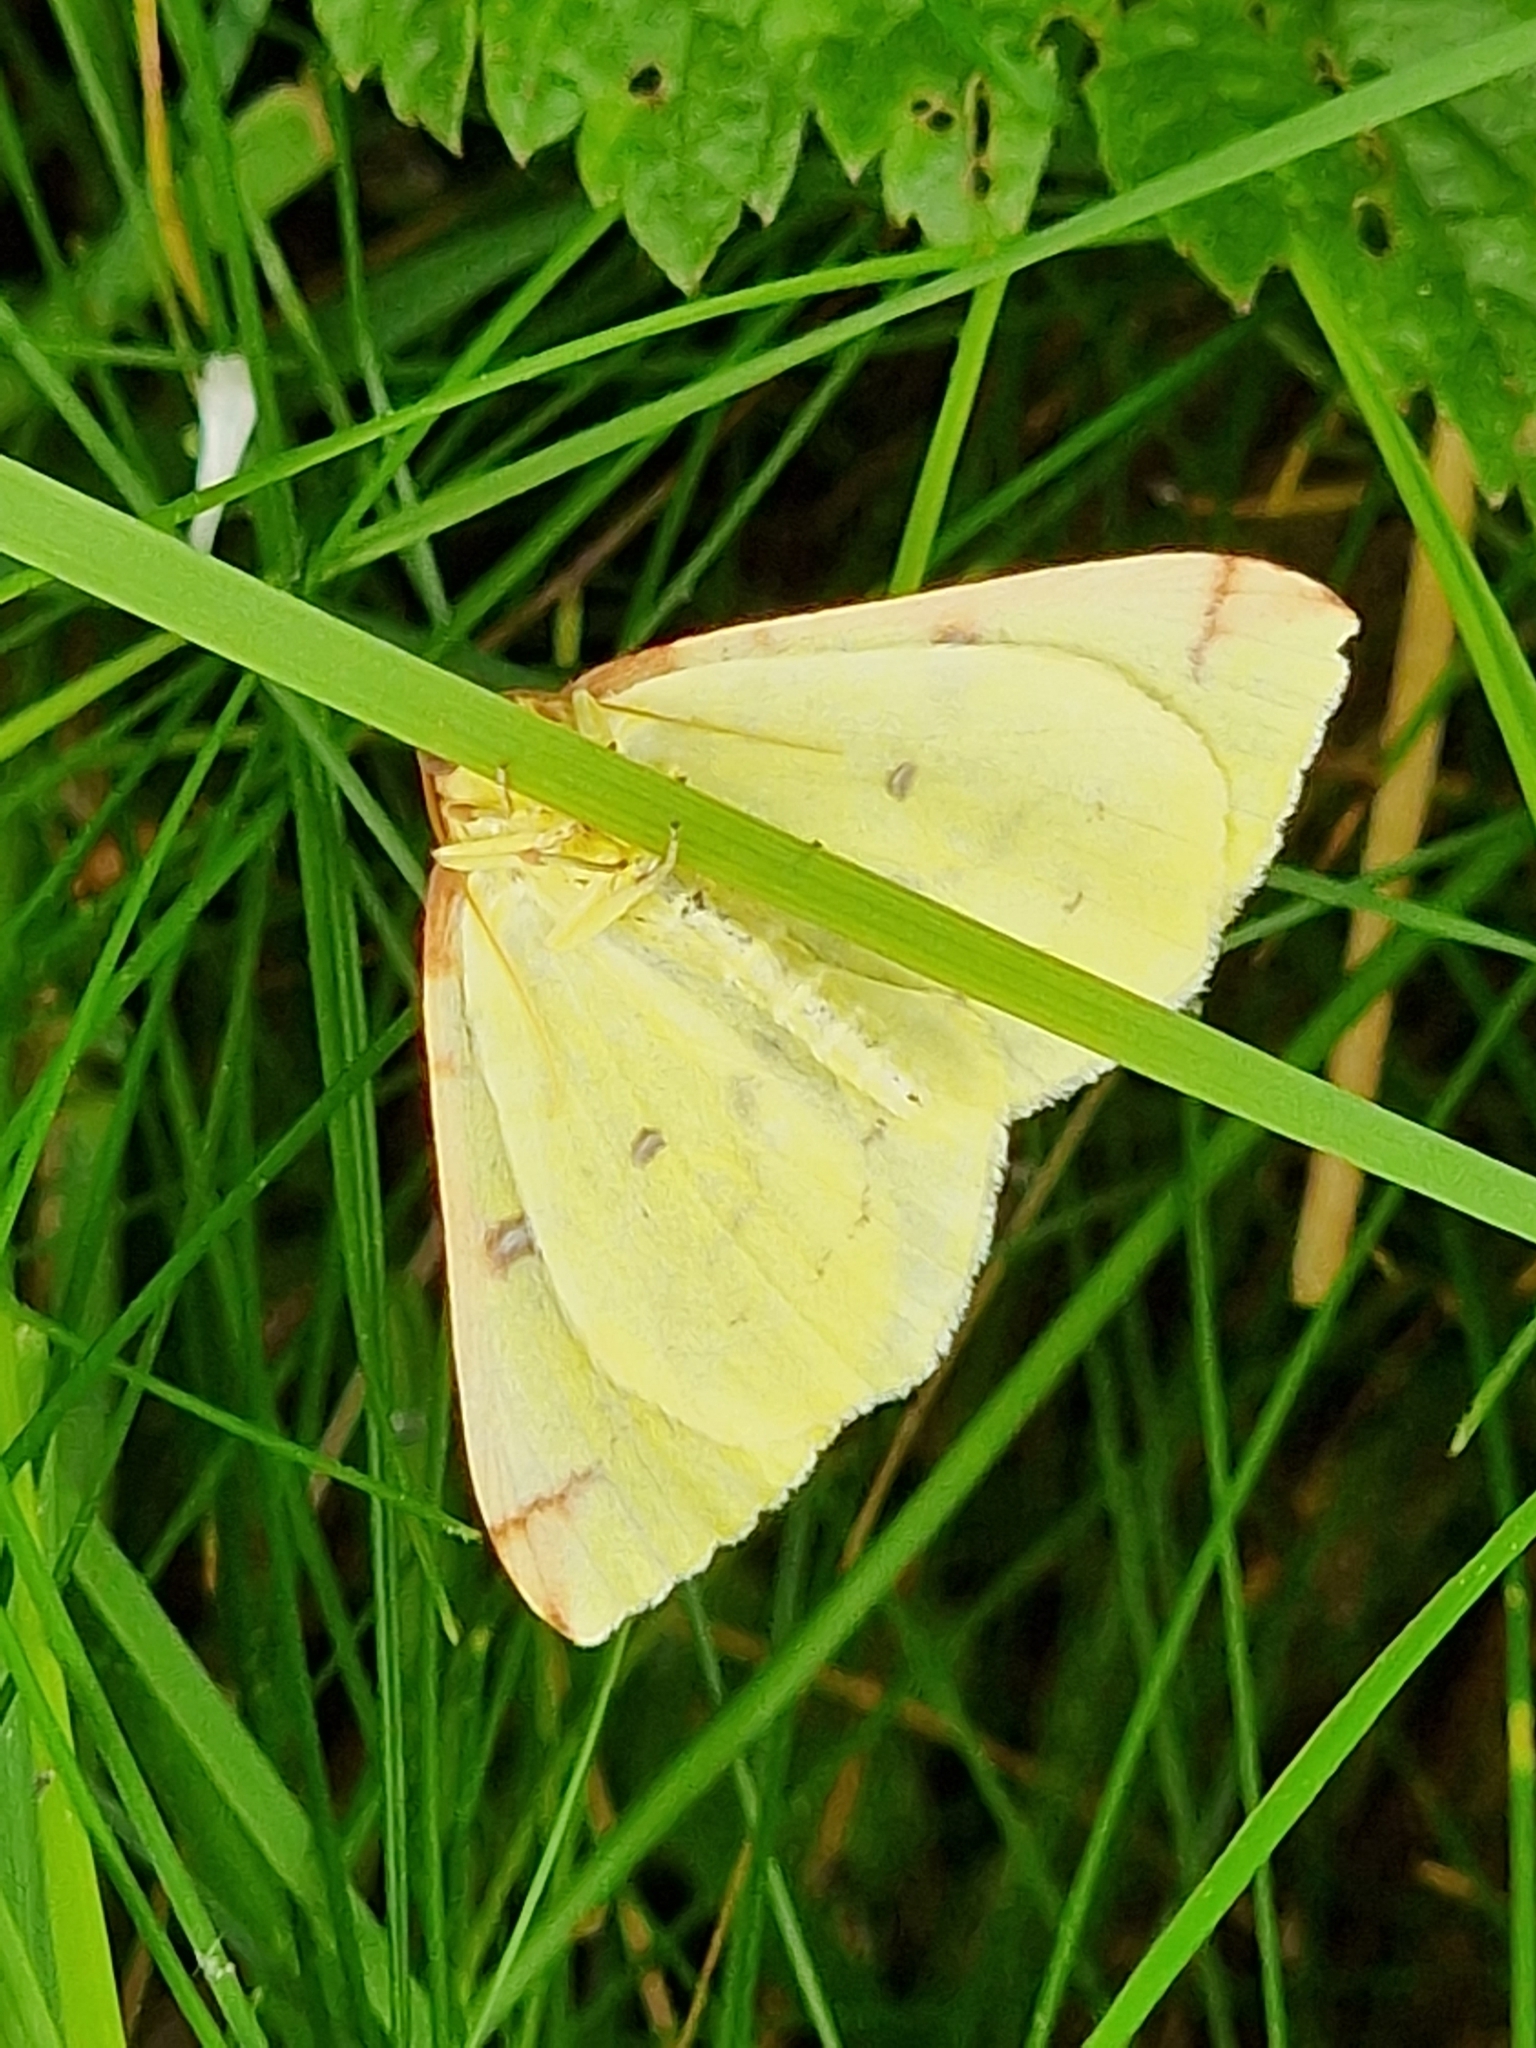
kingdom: Animalia
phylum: Arthropoda
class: Insecta
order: Lepidoptera
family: Geometridae
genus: Opisthograptis
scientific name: Opisthograptis luteolata
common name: Brimstone moth
